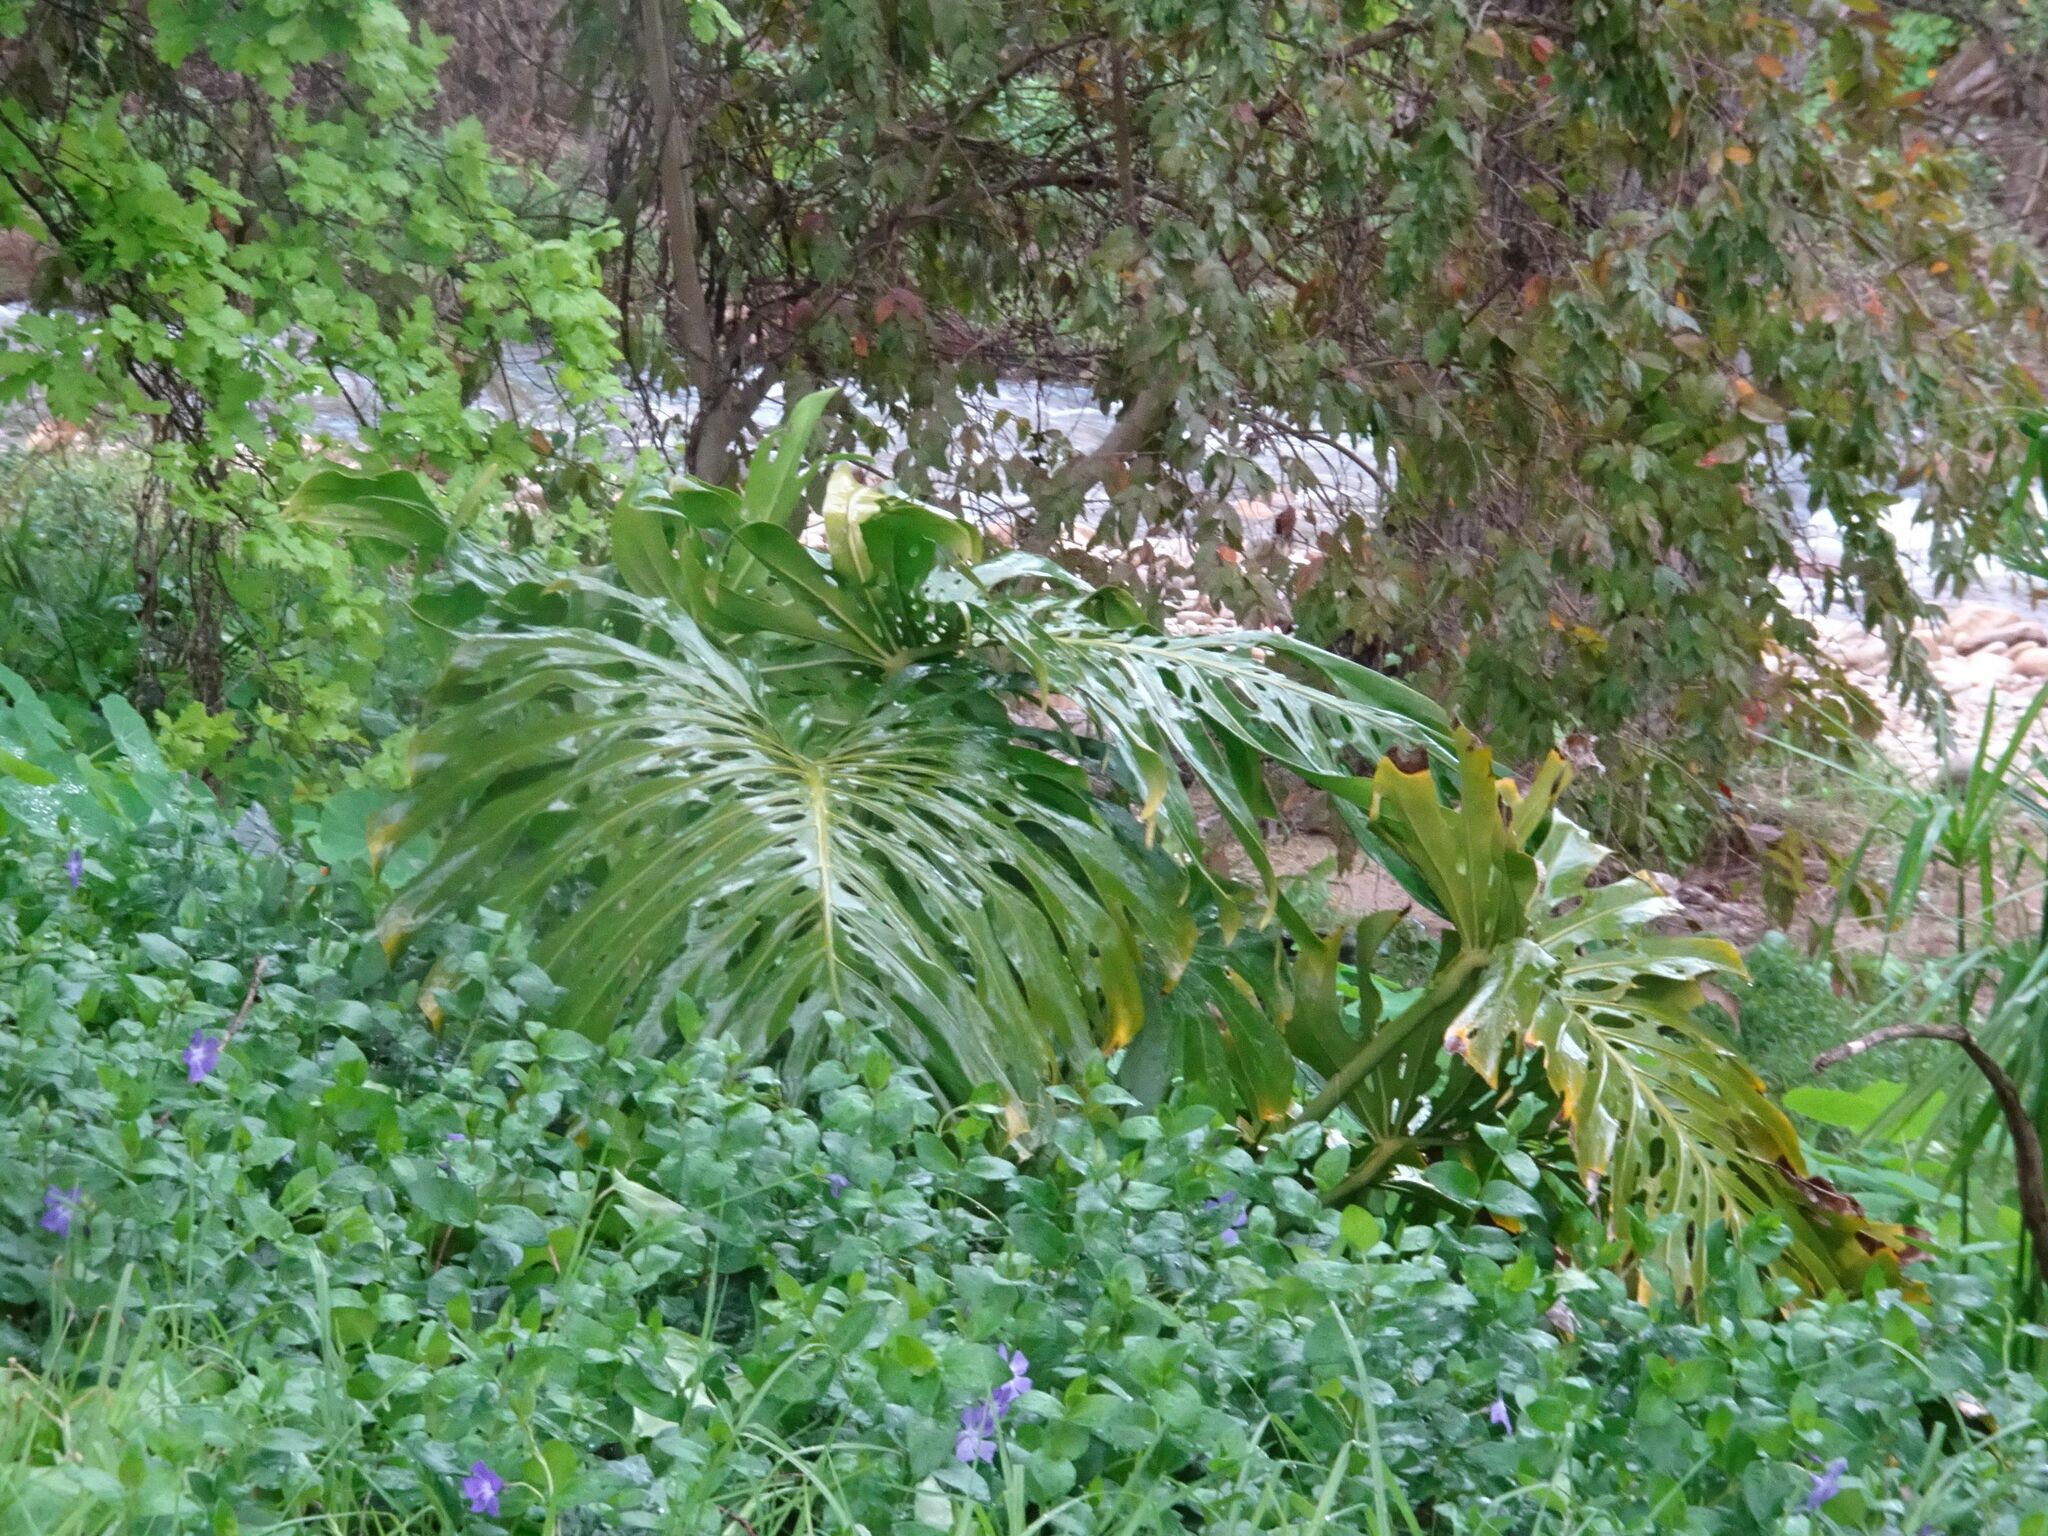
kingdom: Plantae
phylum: Tracheophyta
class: Liliopsida
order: Alismatales
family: Araceae
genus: Monstera
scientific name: Monstera deliciosa
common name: Cut-leaf-philodendron
